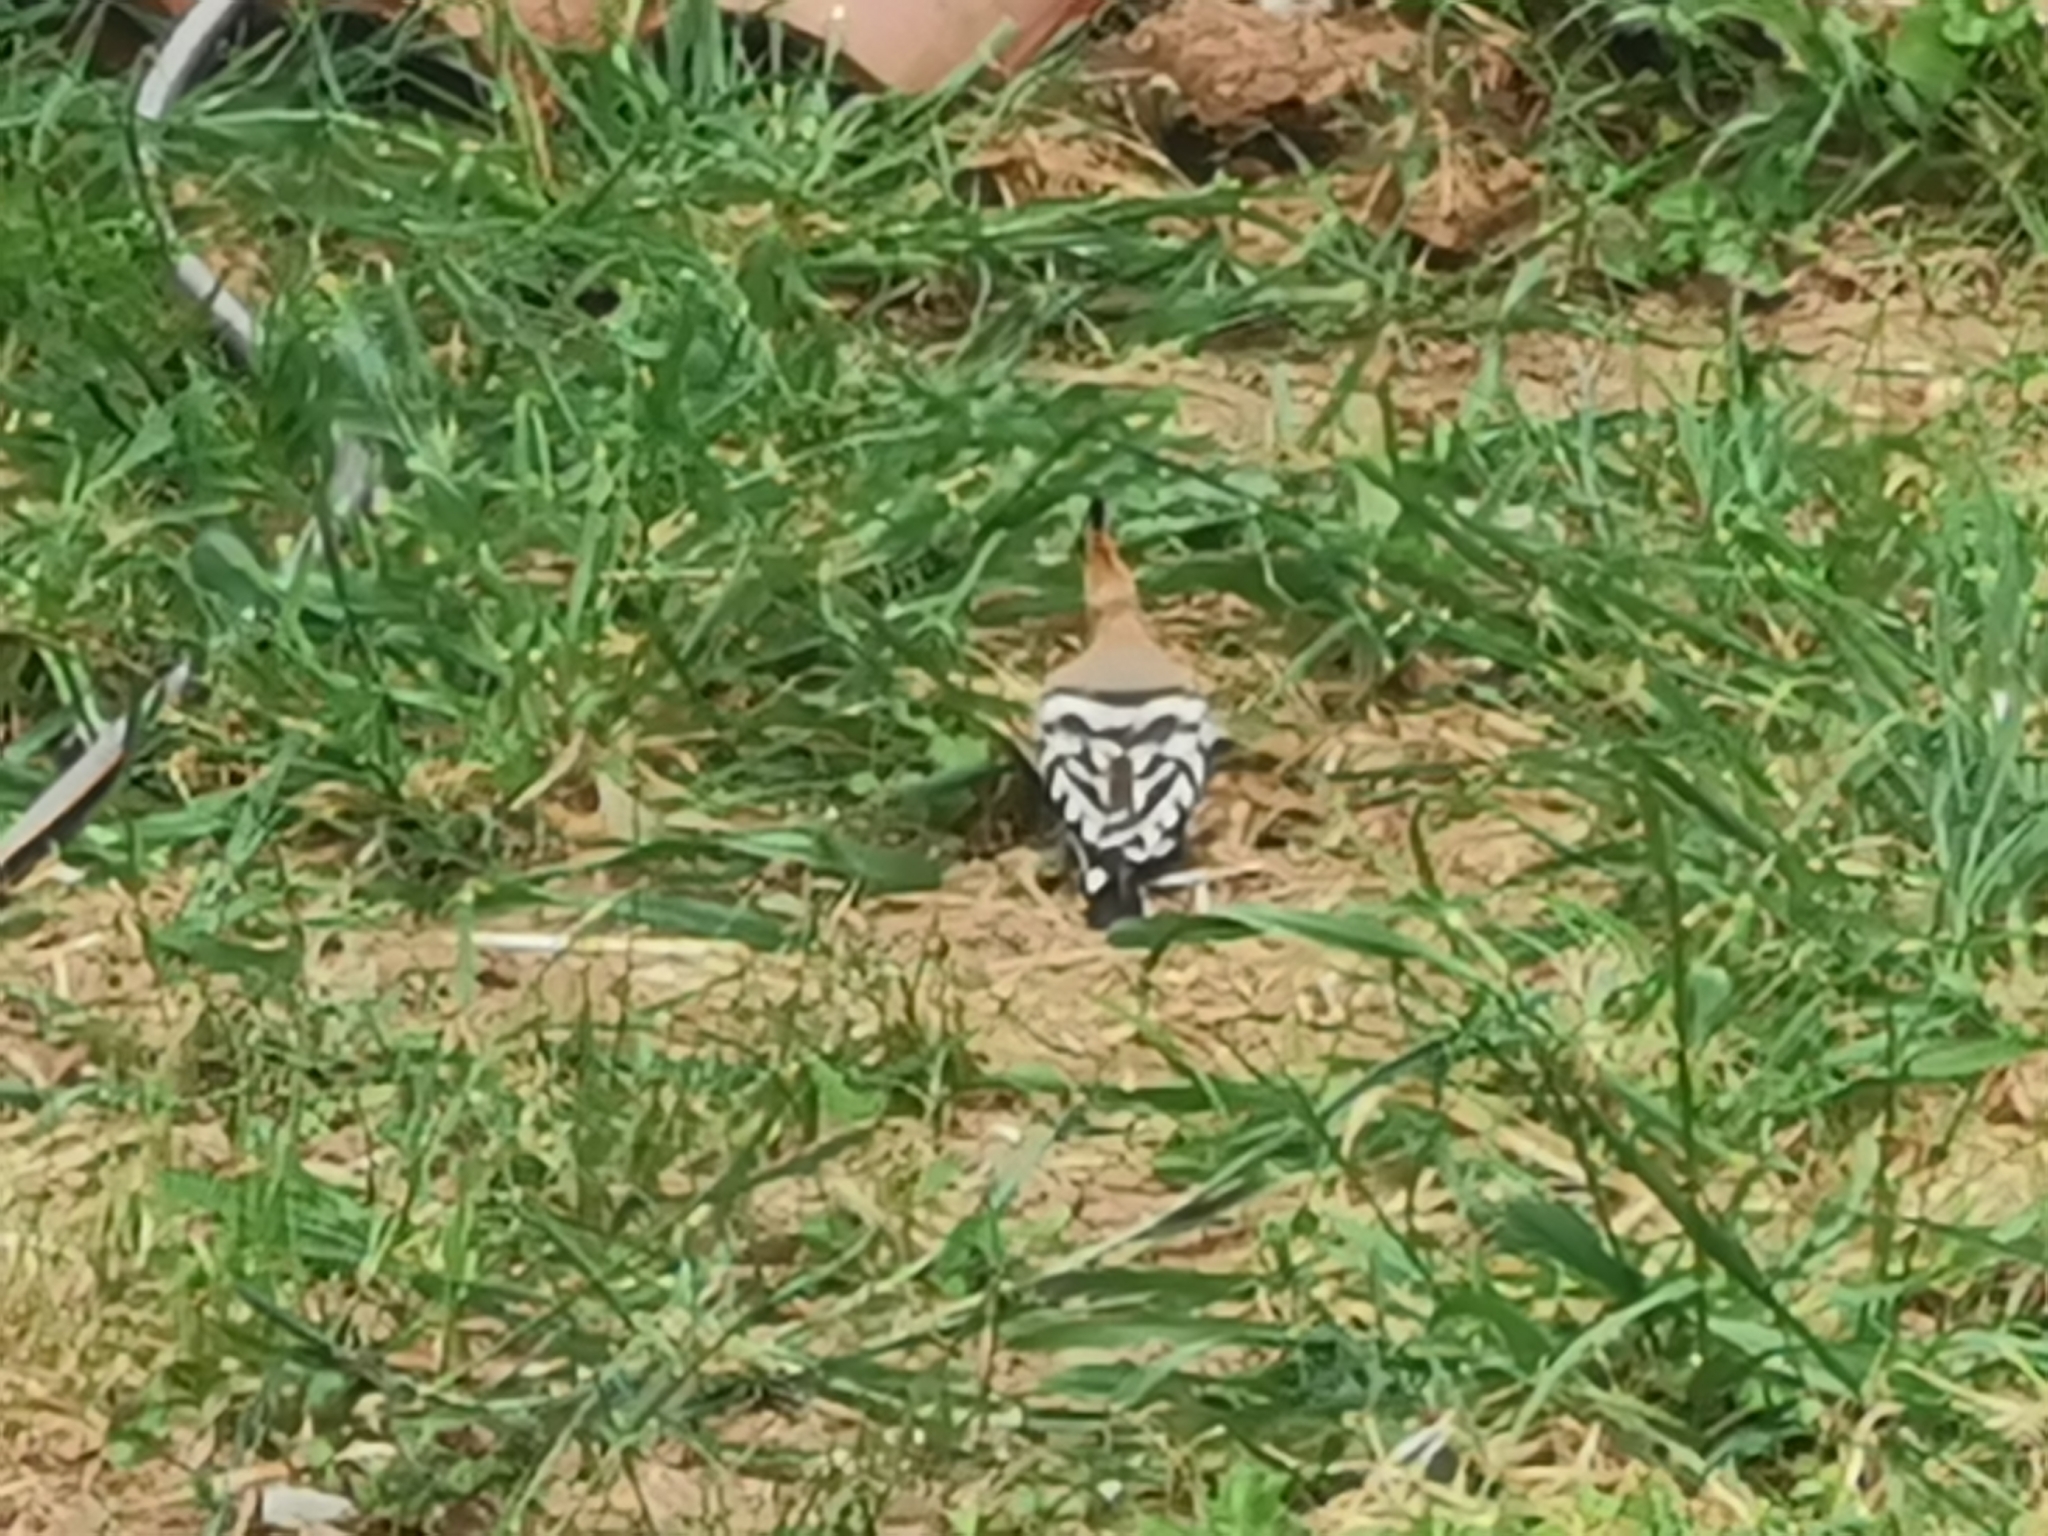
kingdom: Animalia
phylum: Chordata
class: Aves
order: Bucerotiformes
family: Upupidae
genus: Upupa
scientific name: Upupa epops
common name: Eurasian hoopoe
